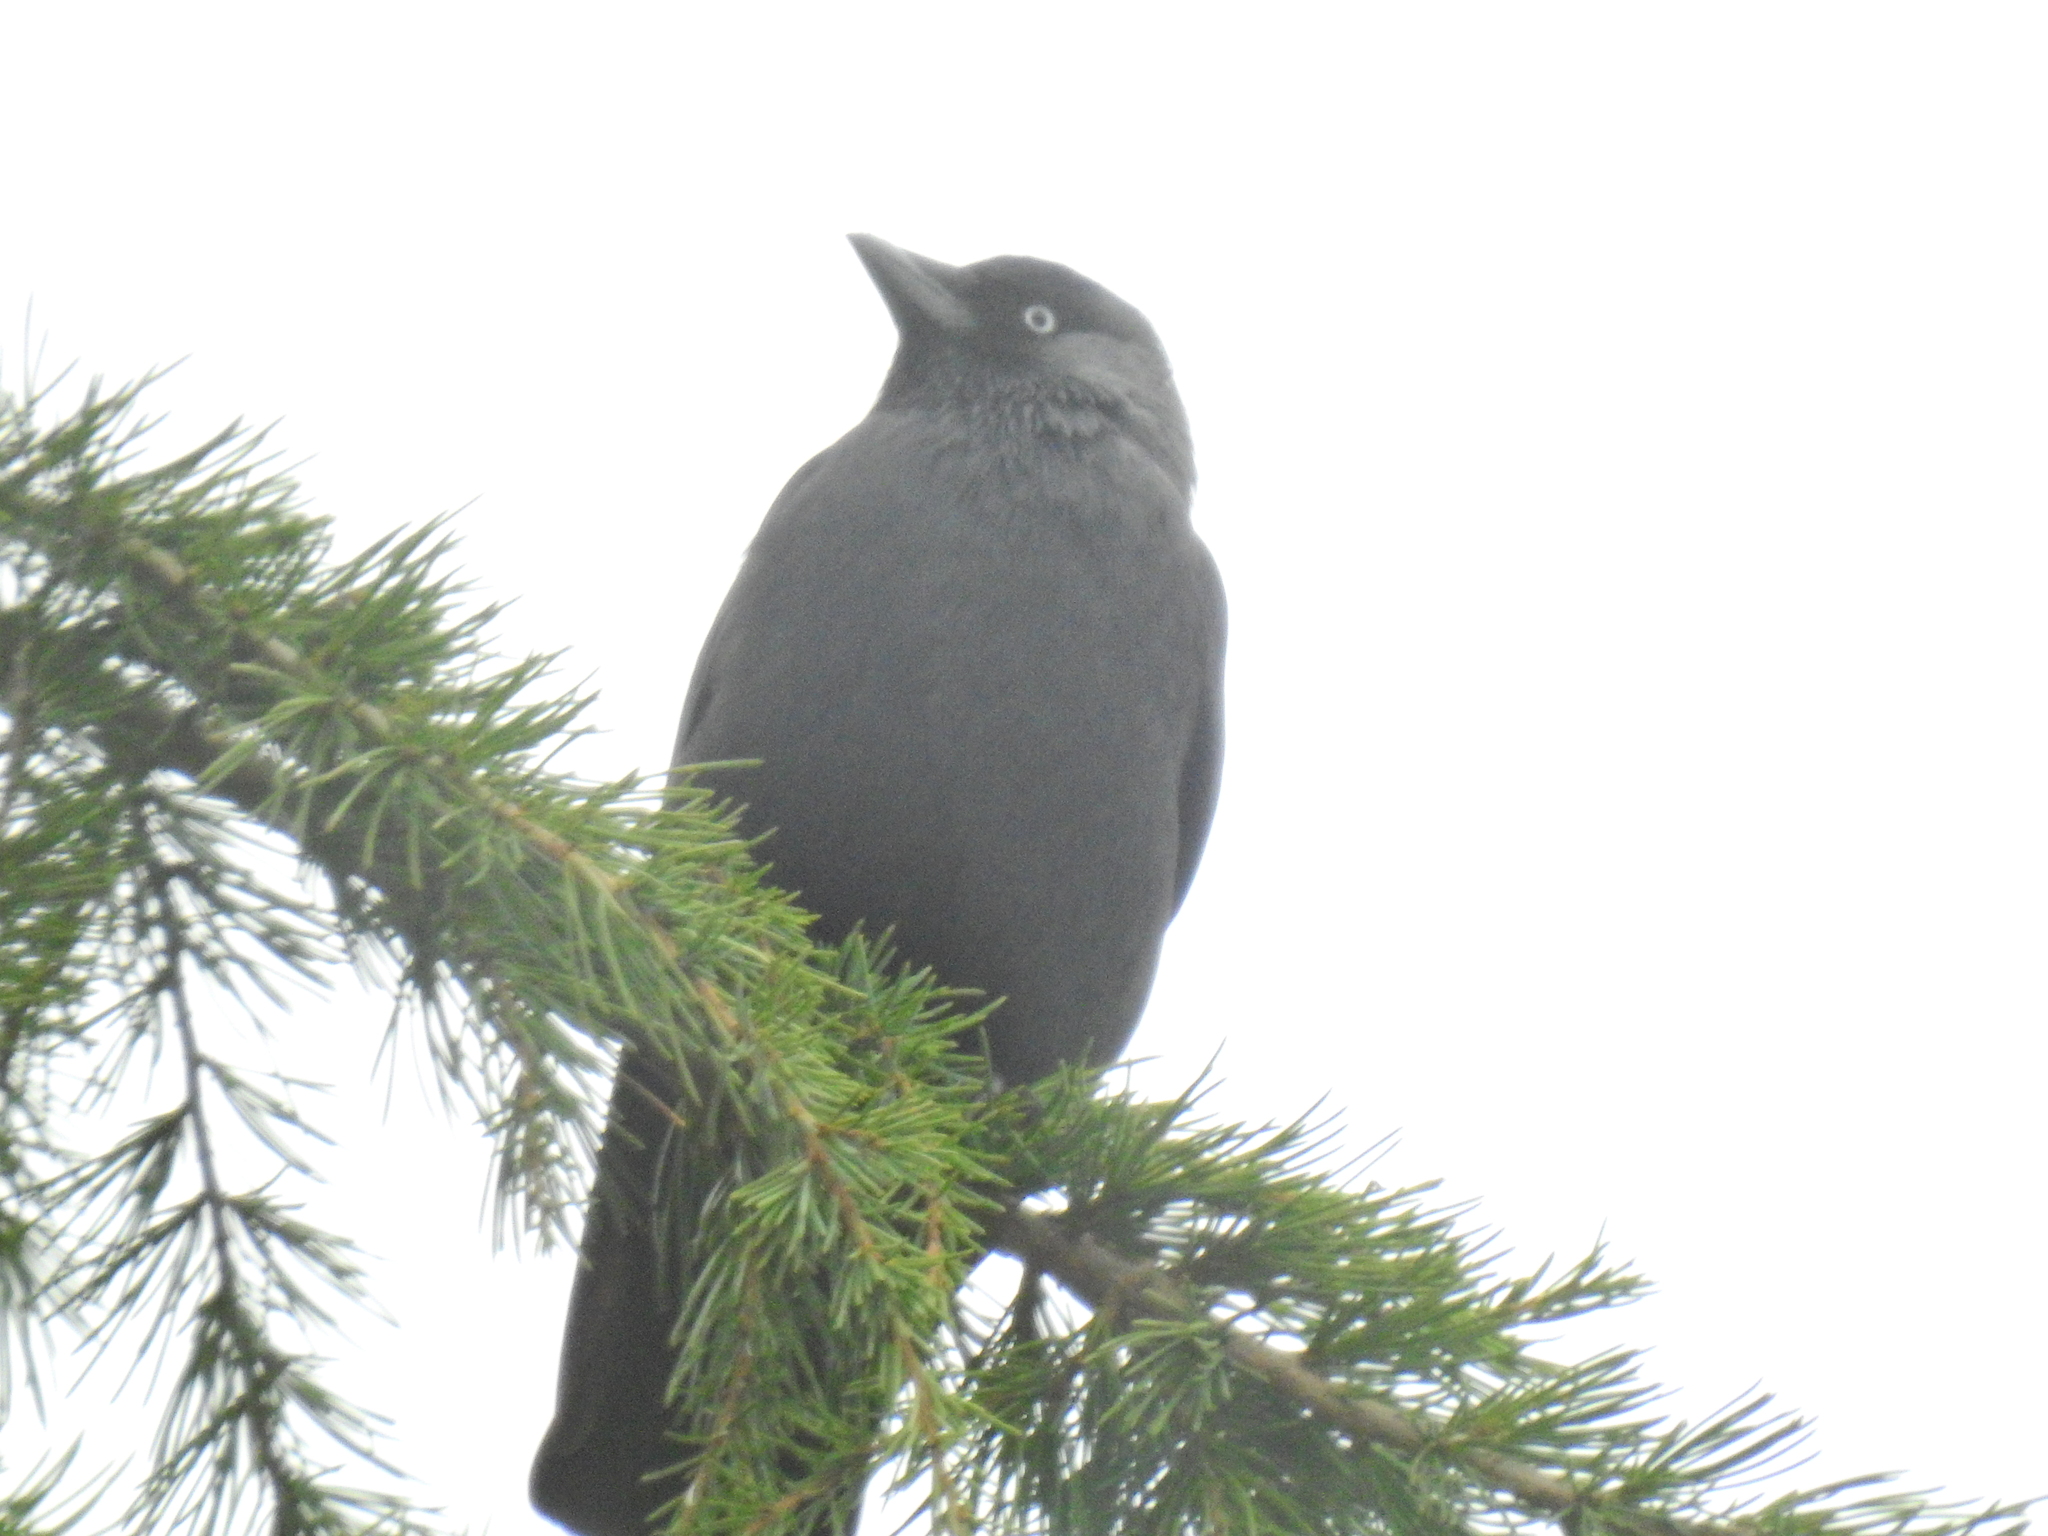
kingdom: Animalia
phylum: Chordata
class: Aves
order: Passeriformes
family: Corvidae
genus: Coloeus
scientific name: Coloeus monedula
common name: Western jackdaw
